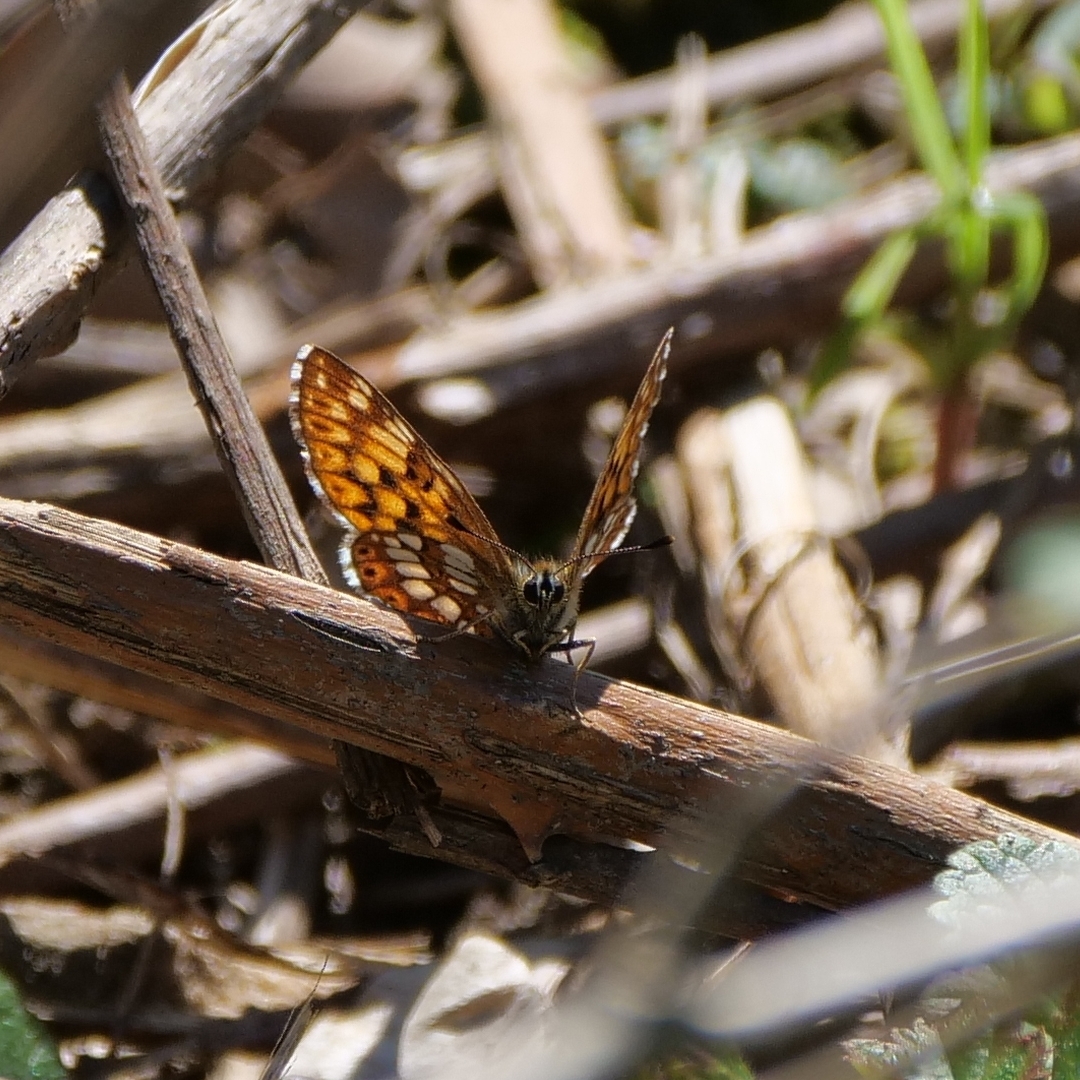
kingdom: Animalia
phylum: Arthropoda
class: Insecta
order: Lepidoptera
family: Riodinidae
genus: Hamearis
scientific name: Hamearis lucina
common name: Duke of burgundy fritillary
